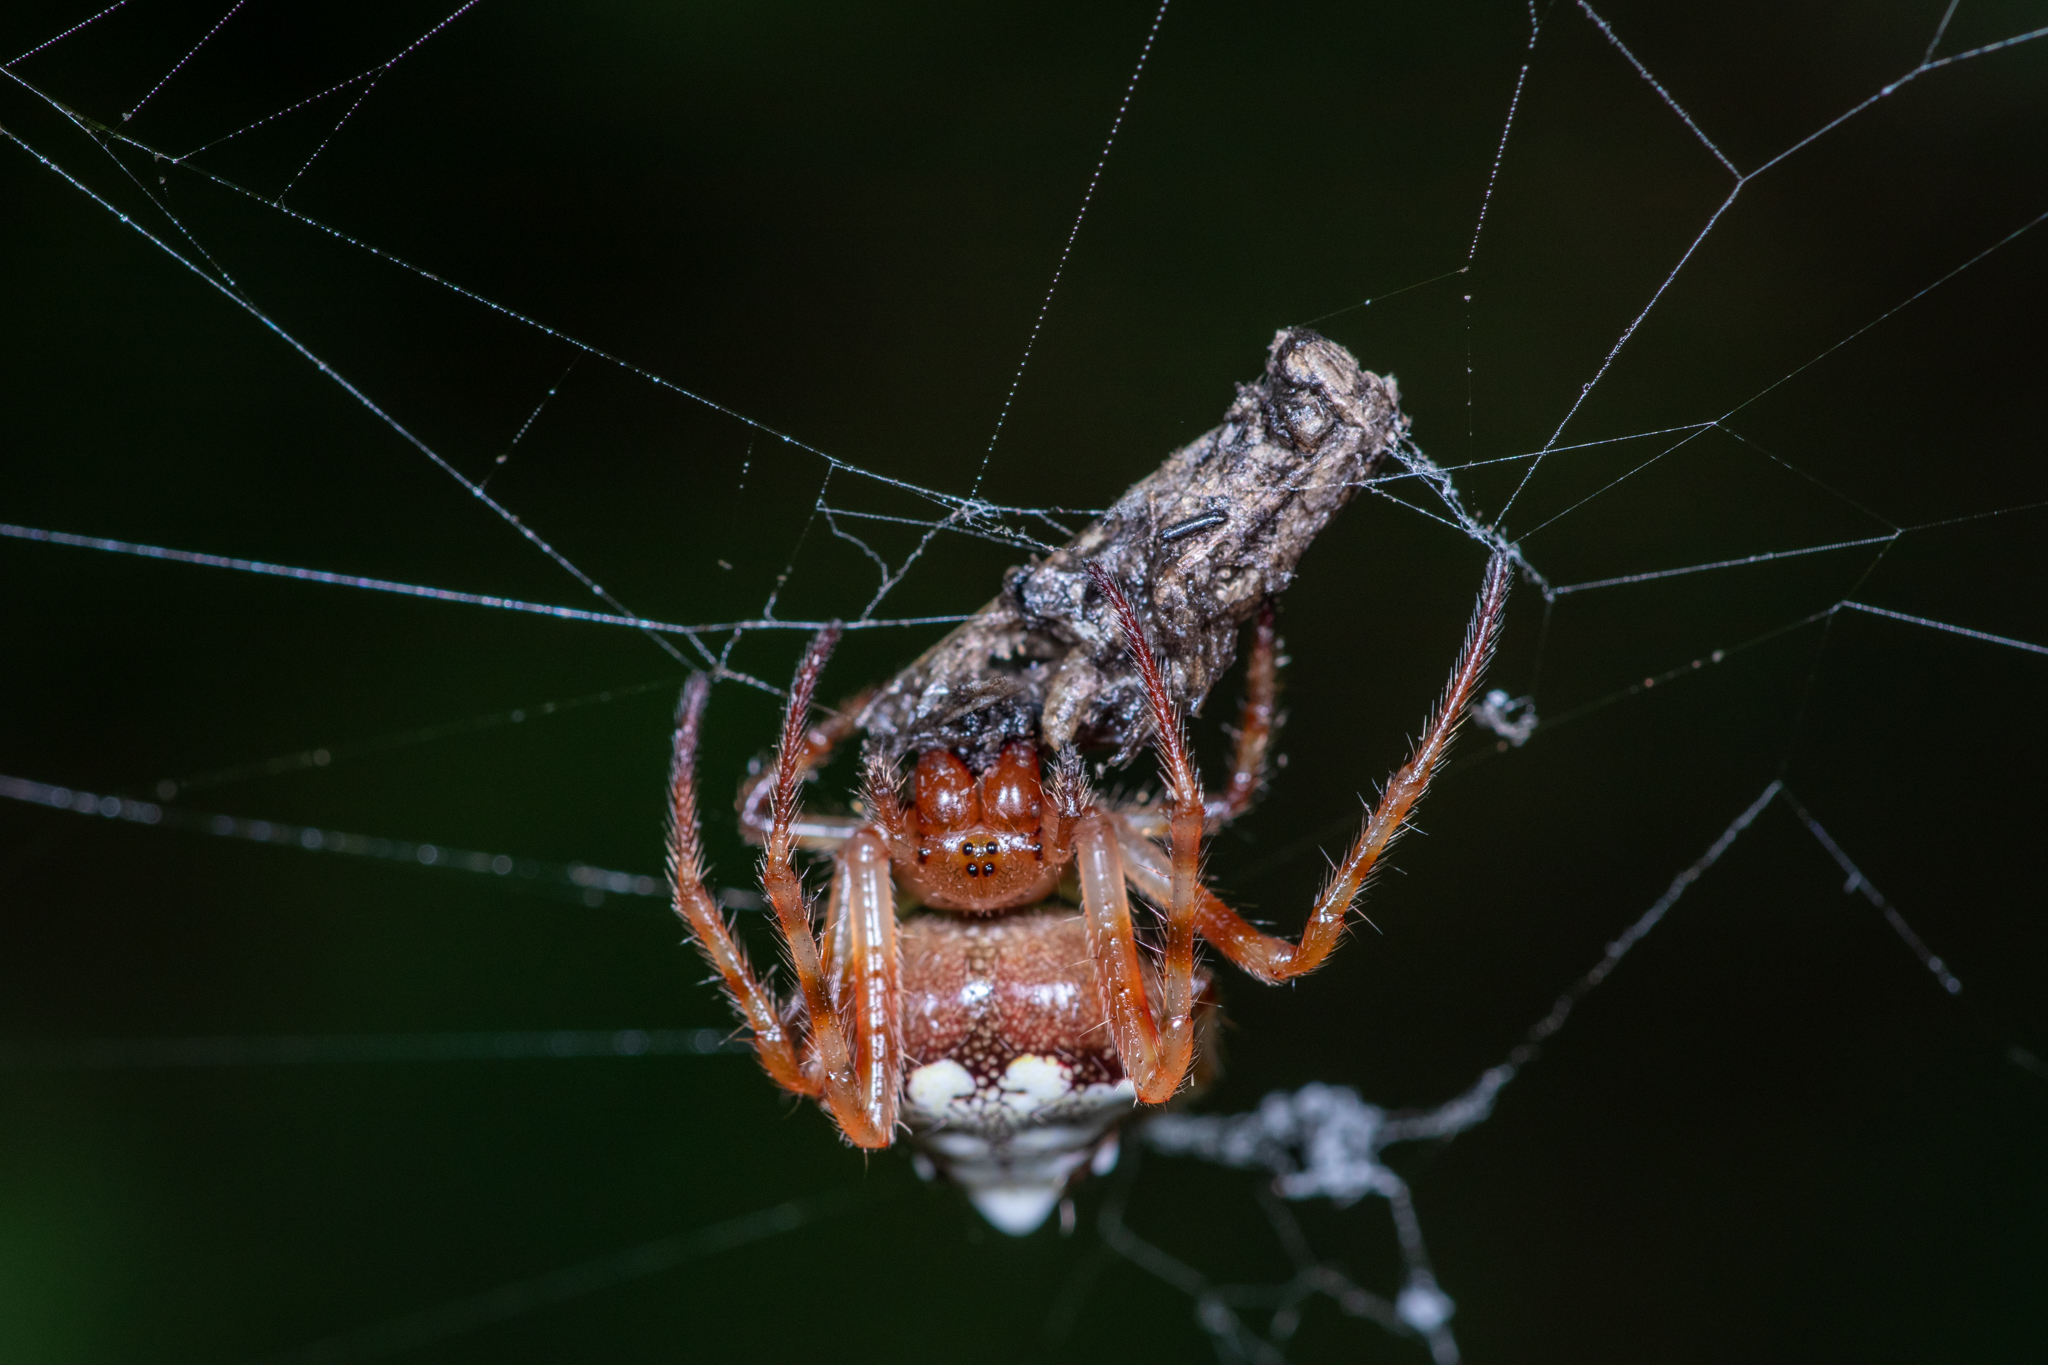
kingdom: Animalia
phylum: Arthropoda
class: Arachnida
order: Araneae
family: Araneidae
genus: Verrucosa
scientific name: Verrucosa arenata
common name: Orb weavers
